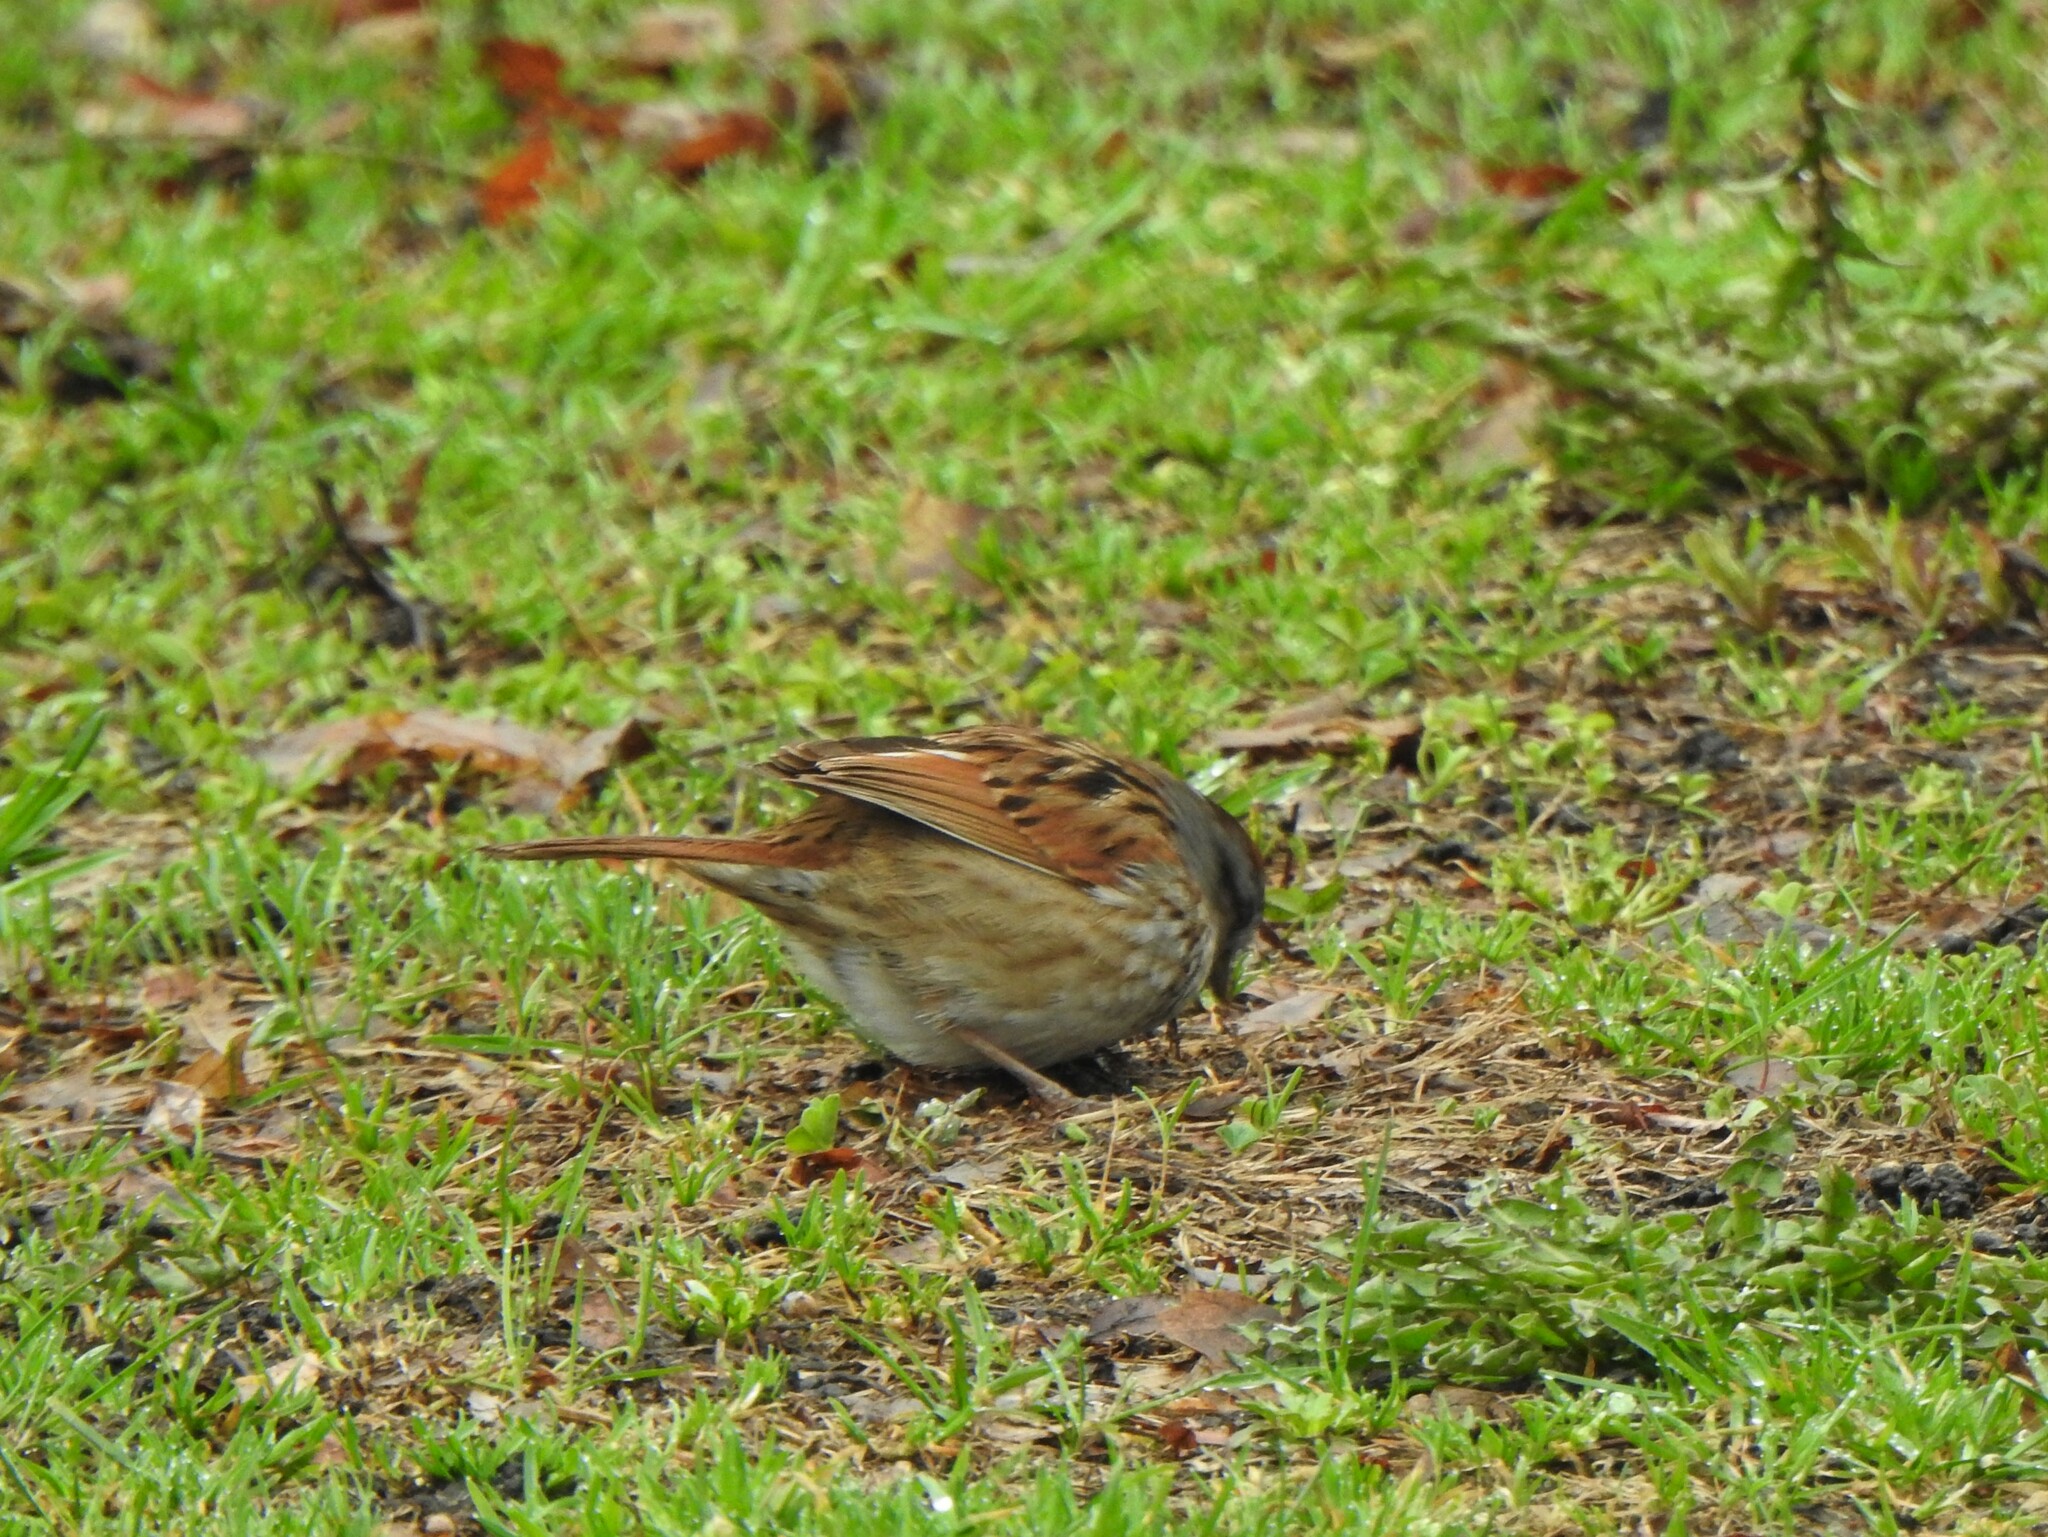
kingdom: Animalia
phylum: Chordata
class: Aves
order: Passeriformes
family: Passerellidae
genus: Melospiza
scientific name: Melospiza georgiana
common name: Swamp sparrow
